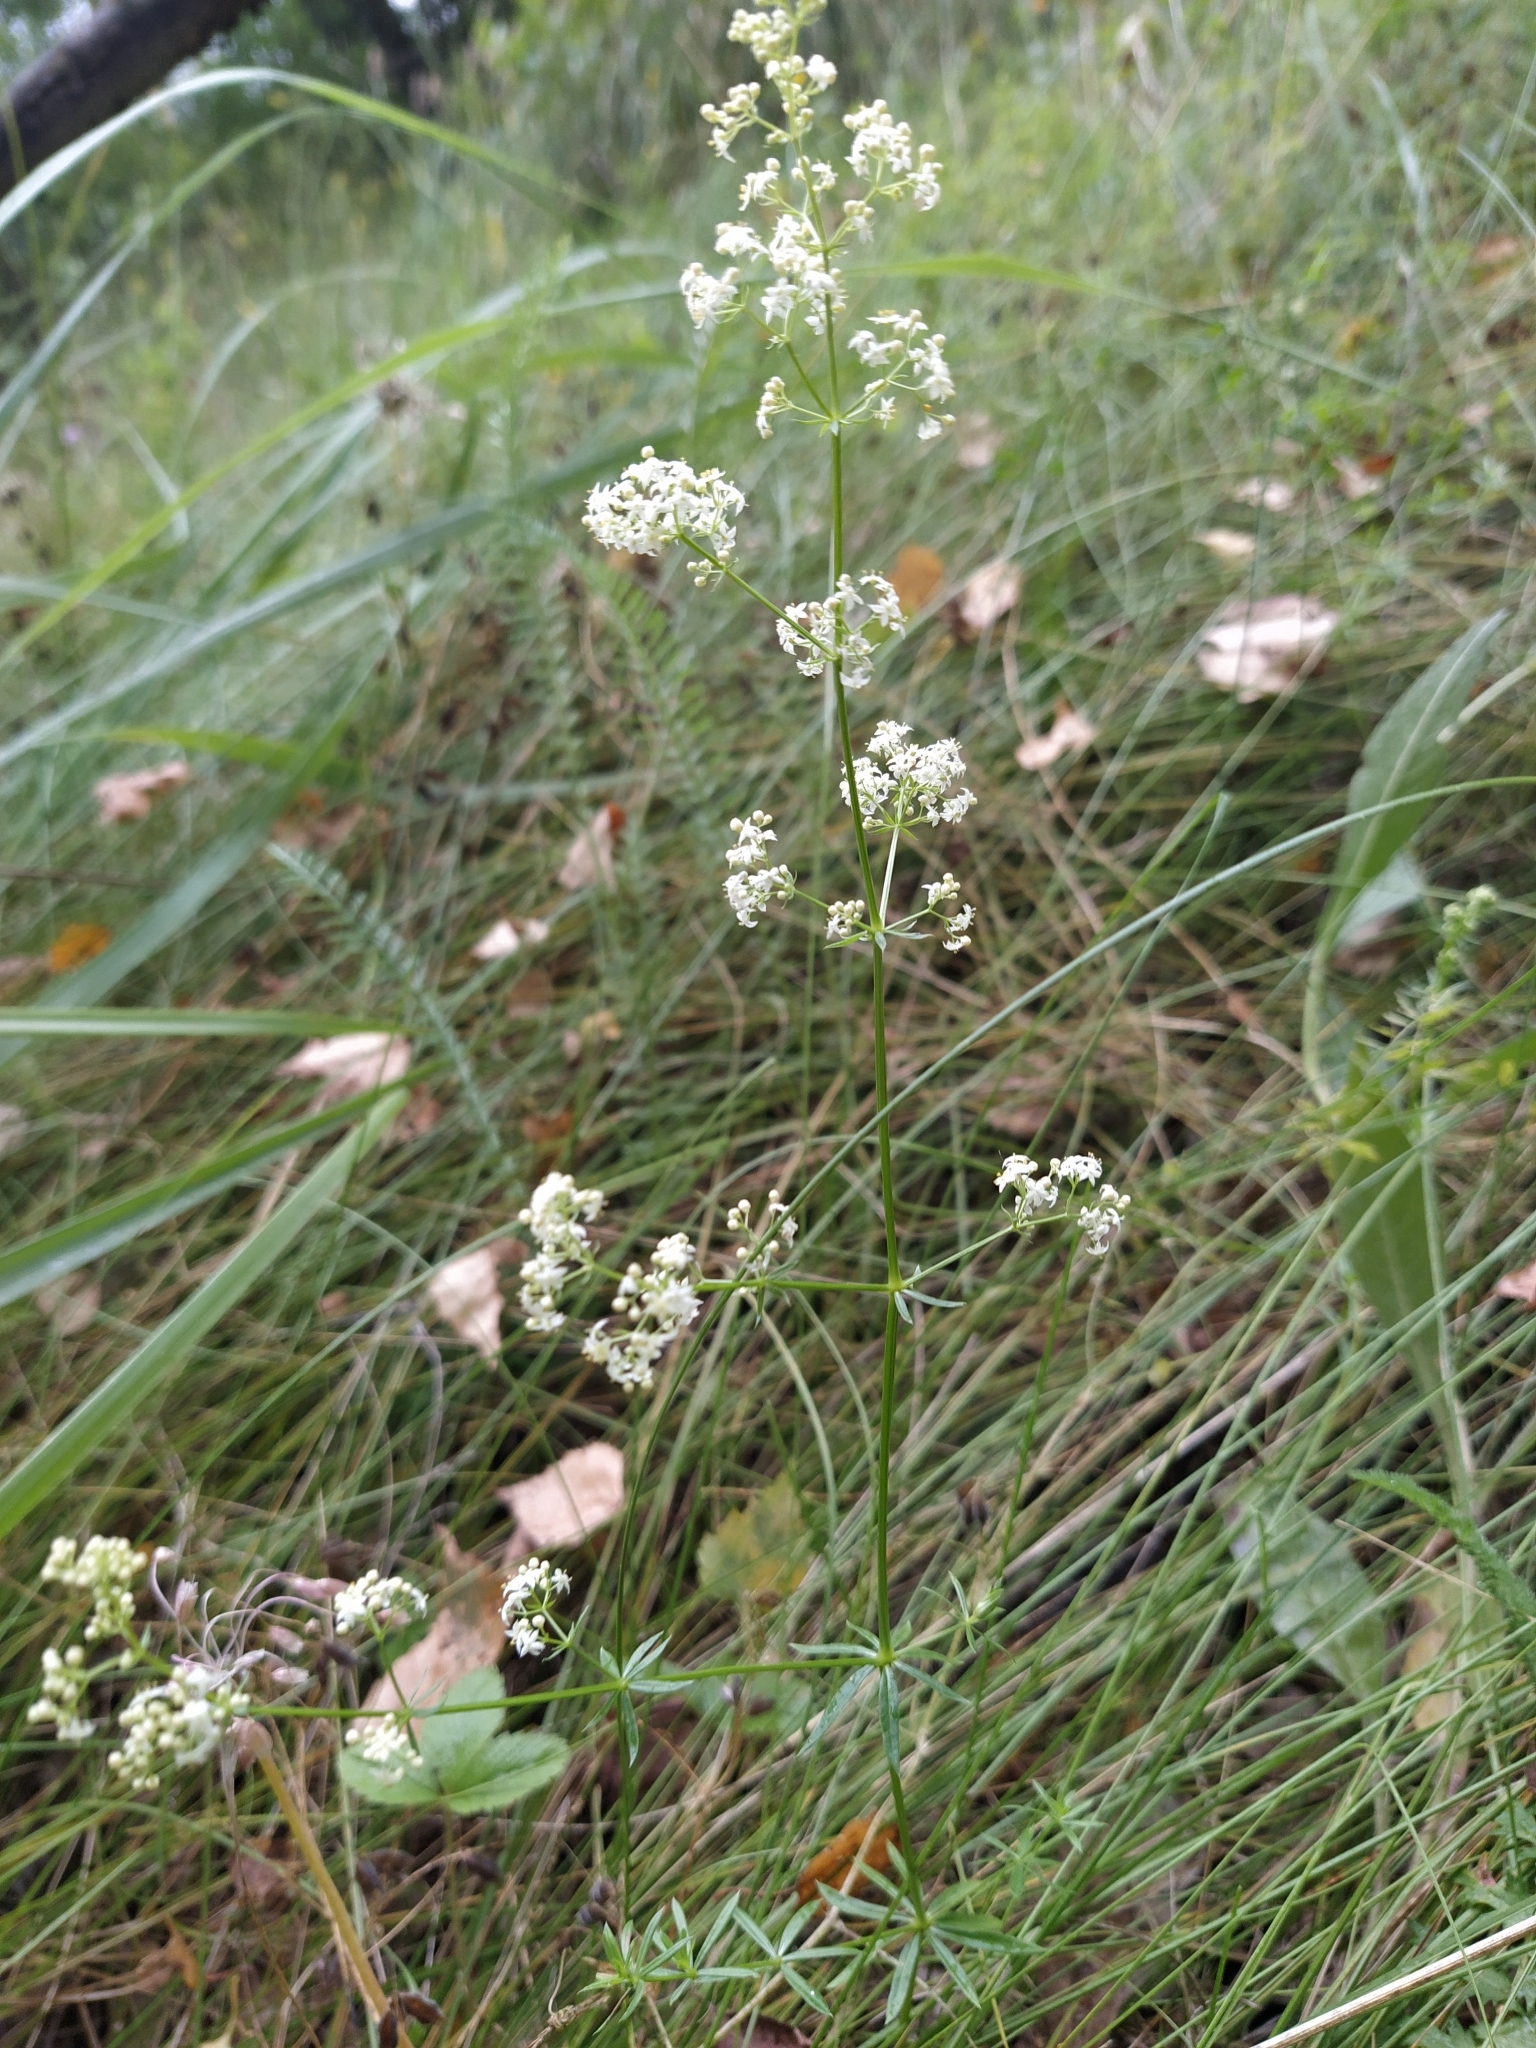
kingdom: Plantae
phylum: Tracheophyta
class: Magnoliopsida
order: Gentianales
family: Rubiaceae
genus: Galium
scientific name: Galium mollugo
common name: Hedge bedstraw
